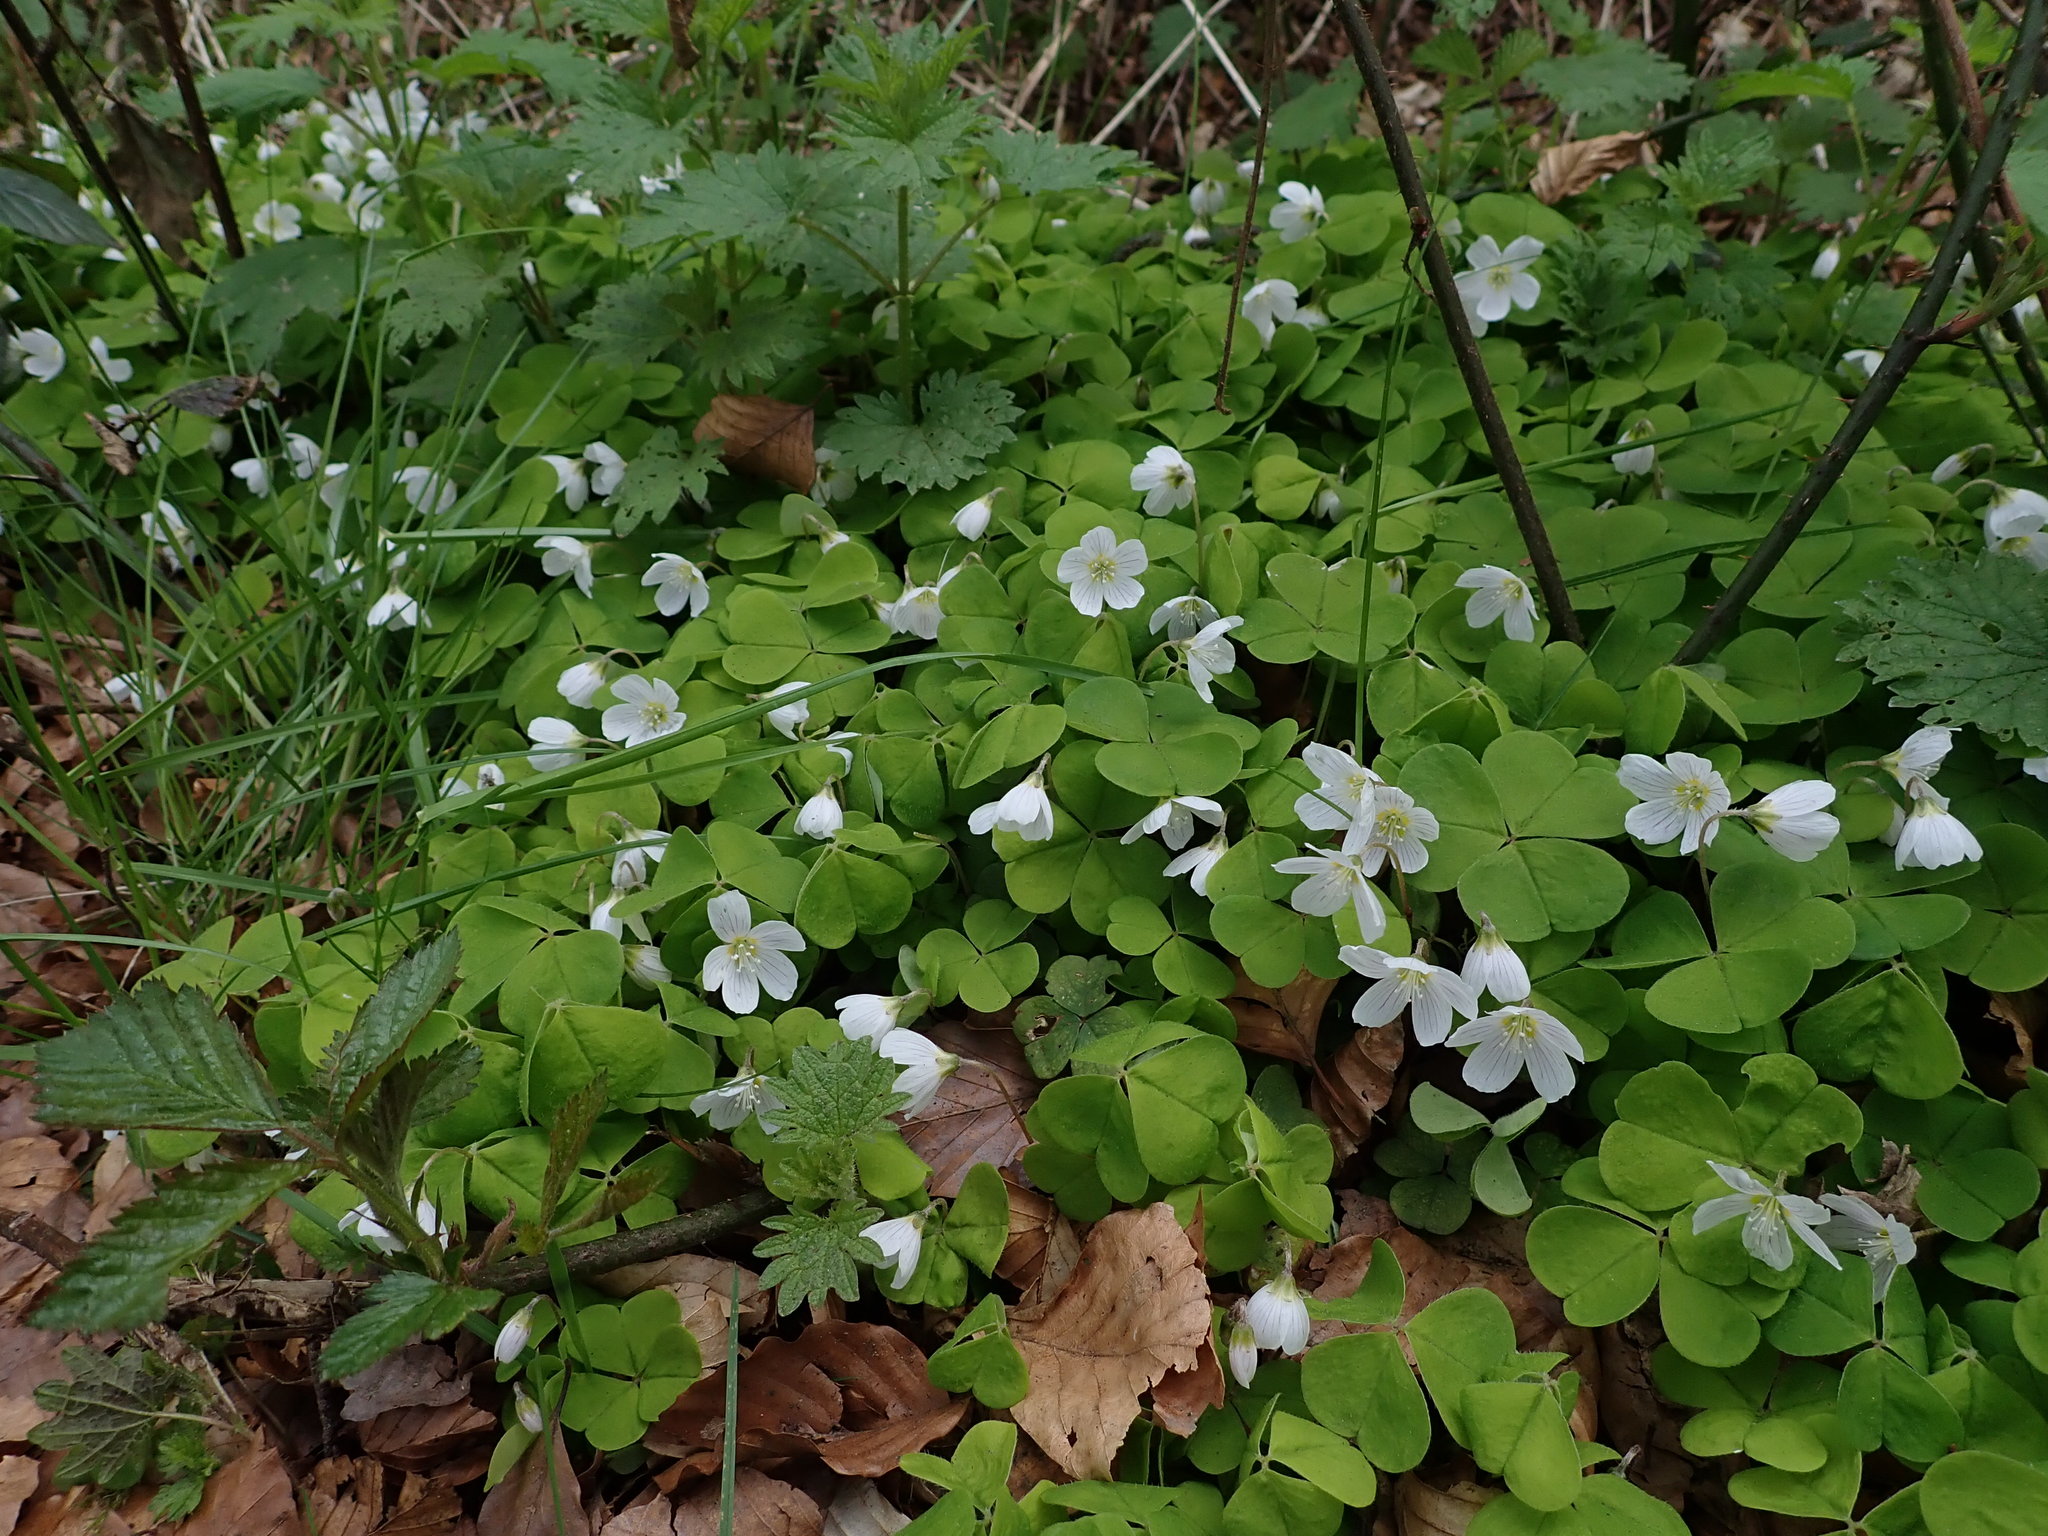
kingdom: Plantae
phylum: Tracheophyta
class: Magnoliopsida
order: Oxalidales
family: Oxalidaceae
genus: Oxalis
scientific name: Oxalis acetosella
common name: Wood-sorrel
